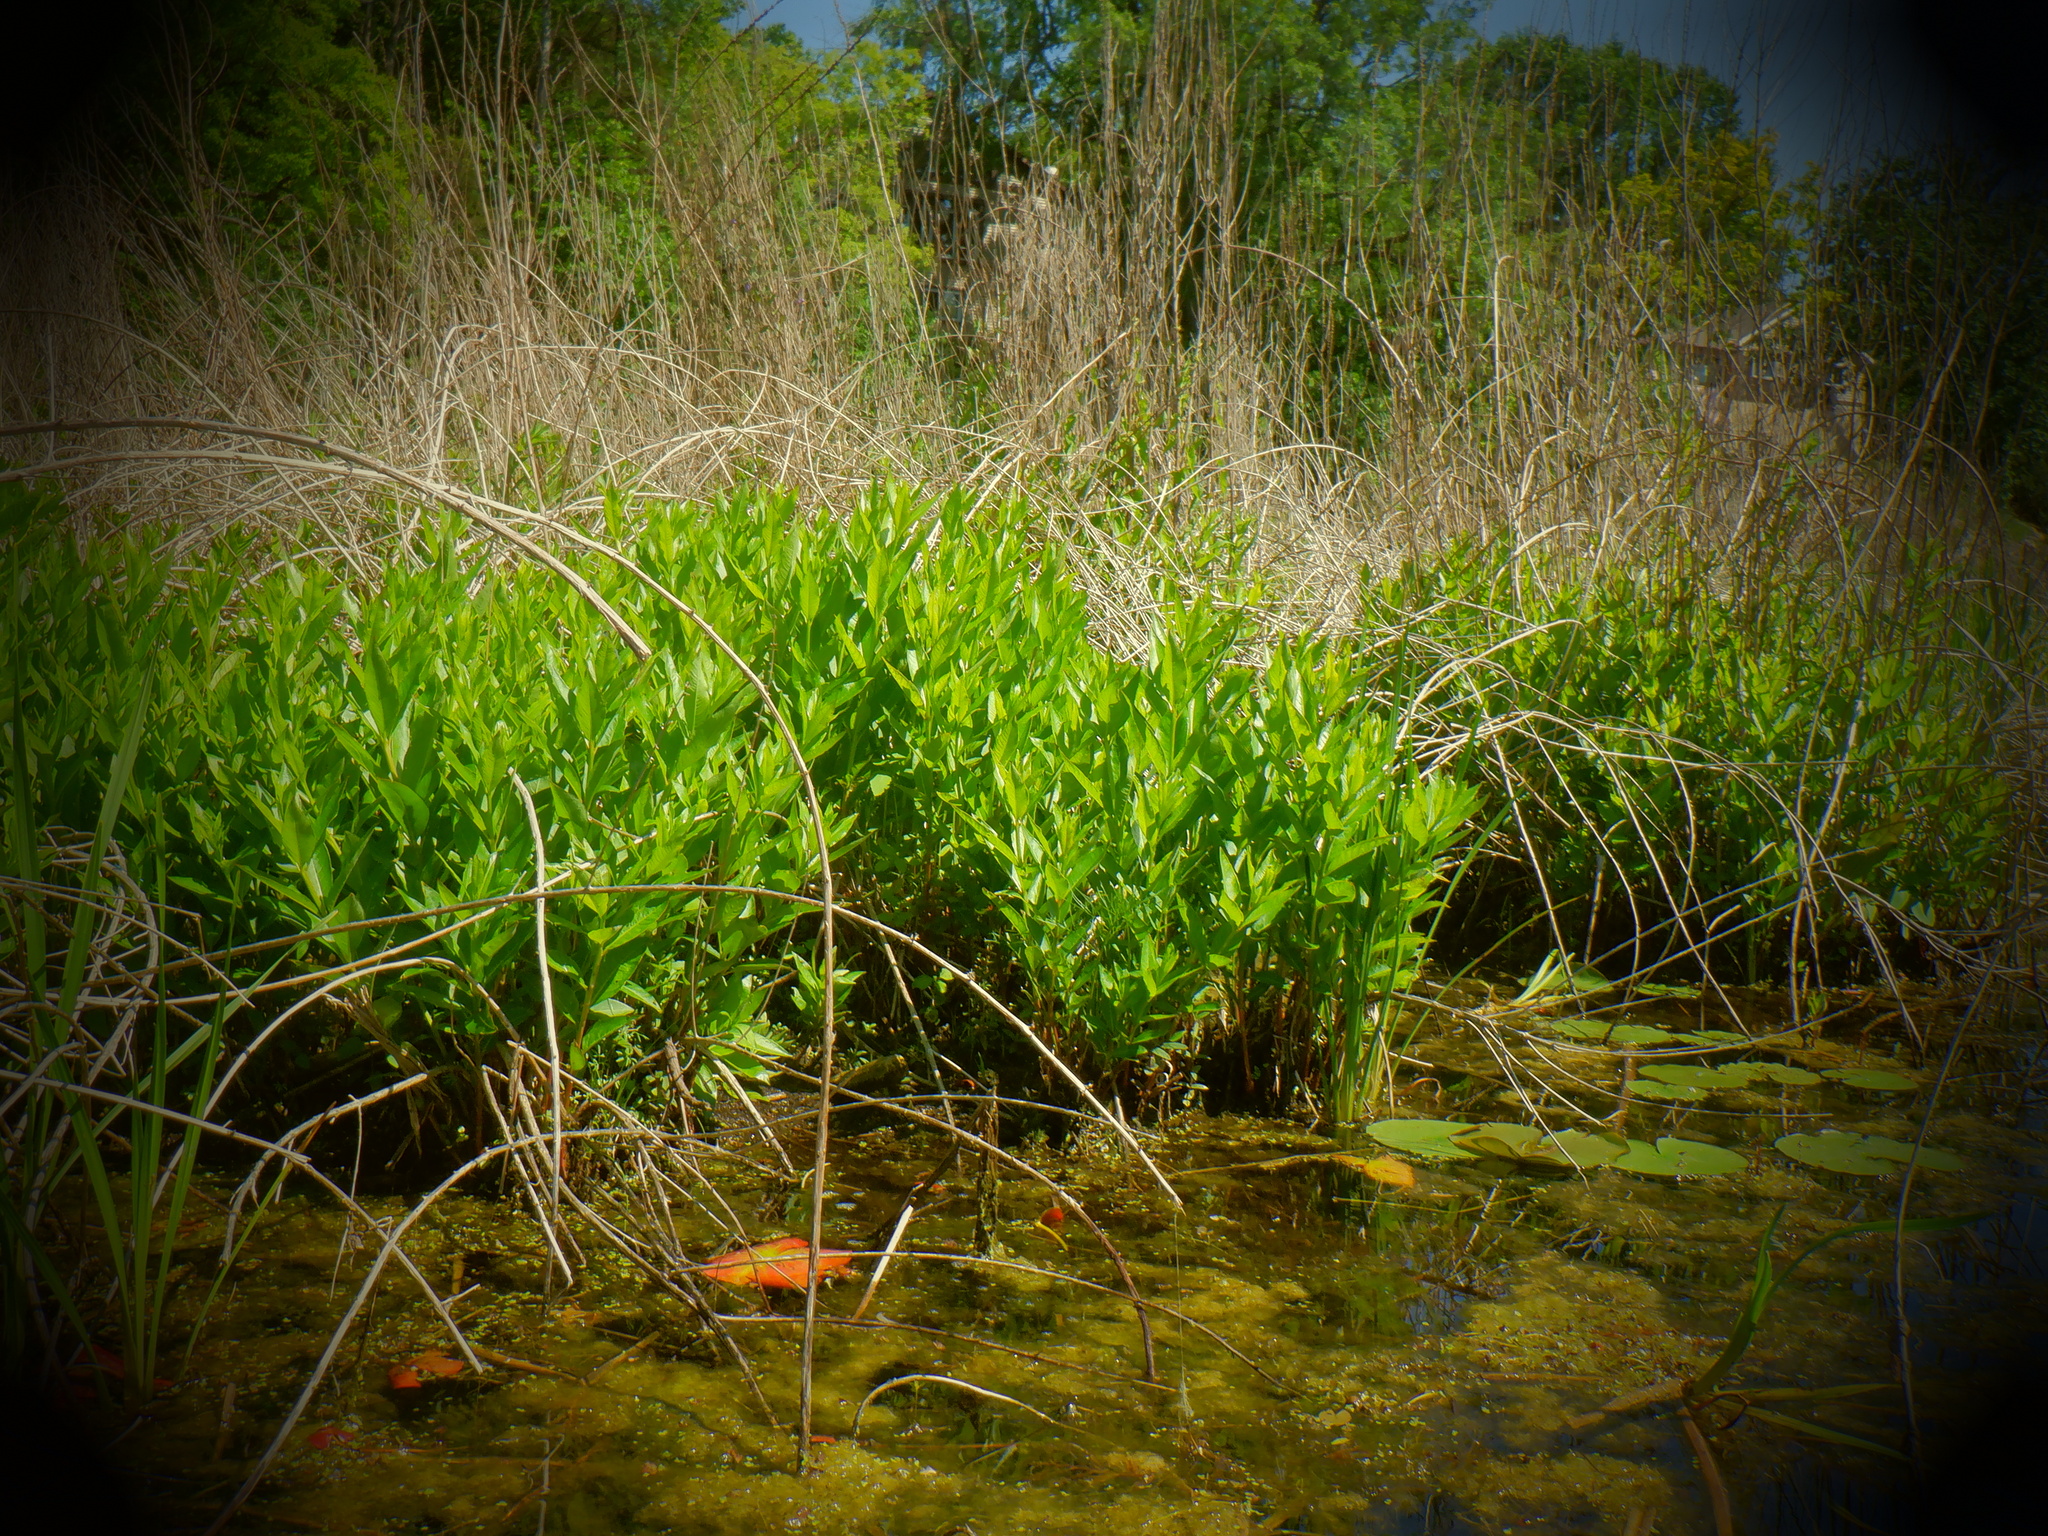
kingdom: Plantae
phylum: Tracheophyta
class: Magnoliopsida
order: Myrtales
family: Lythraceae
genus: Decodon
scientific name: Decodon verticillatus
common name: Hairy swamp loosestrife
